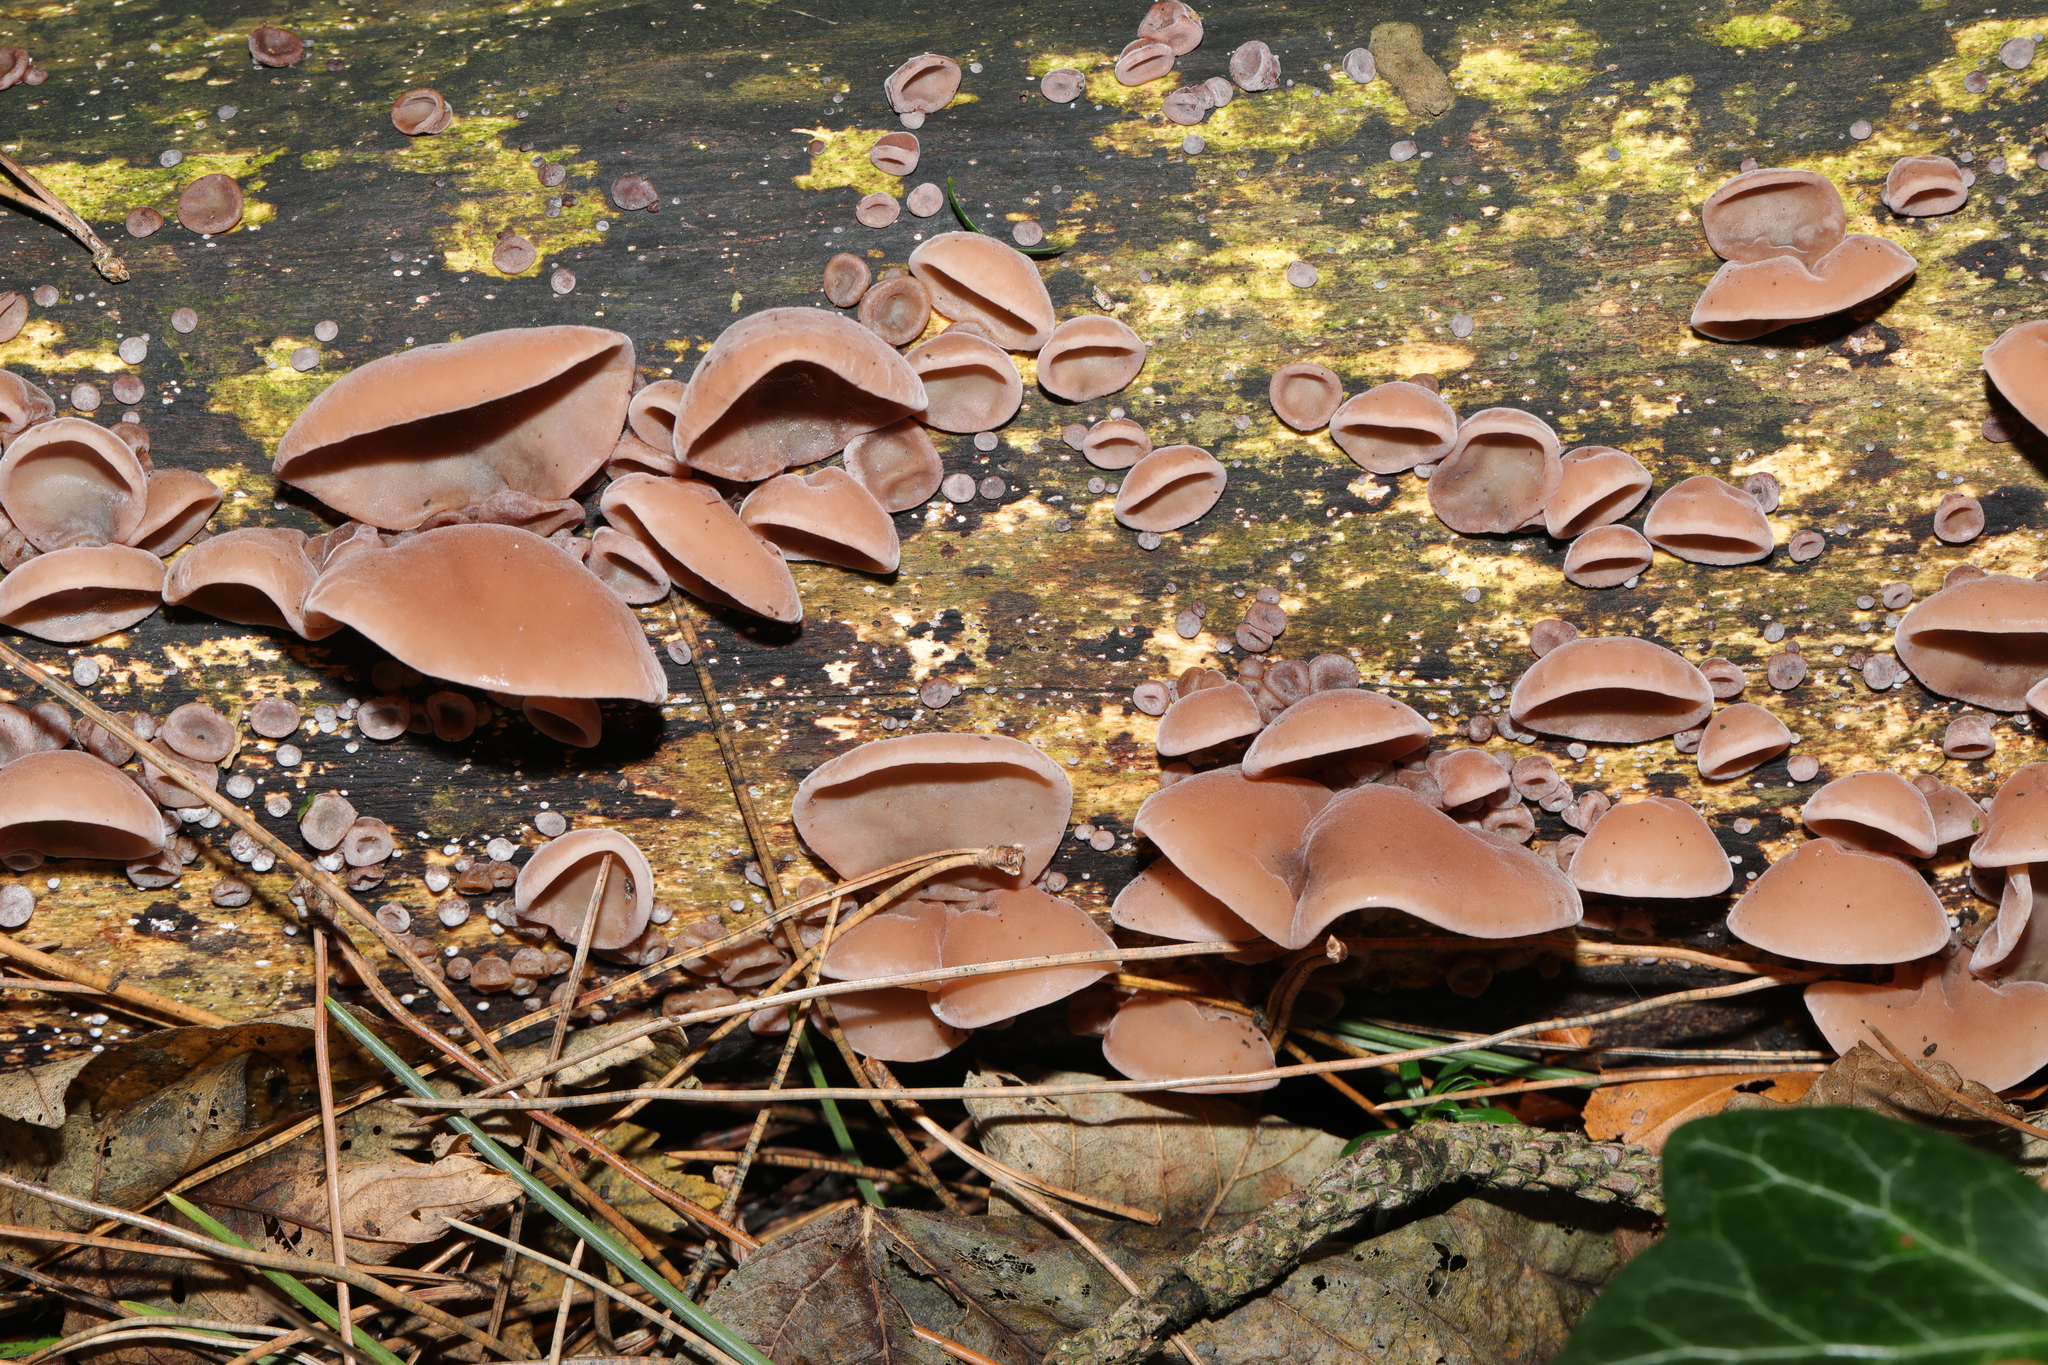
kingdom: Fungi
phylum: Basidiomycota
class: Agaricomycetes
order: Auriculariales
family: Auriculariaceae
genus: Auricularia
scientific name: Auricularia auricula-judae
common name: Jelly ear
